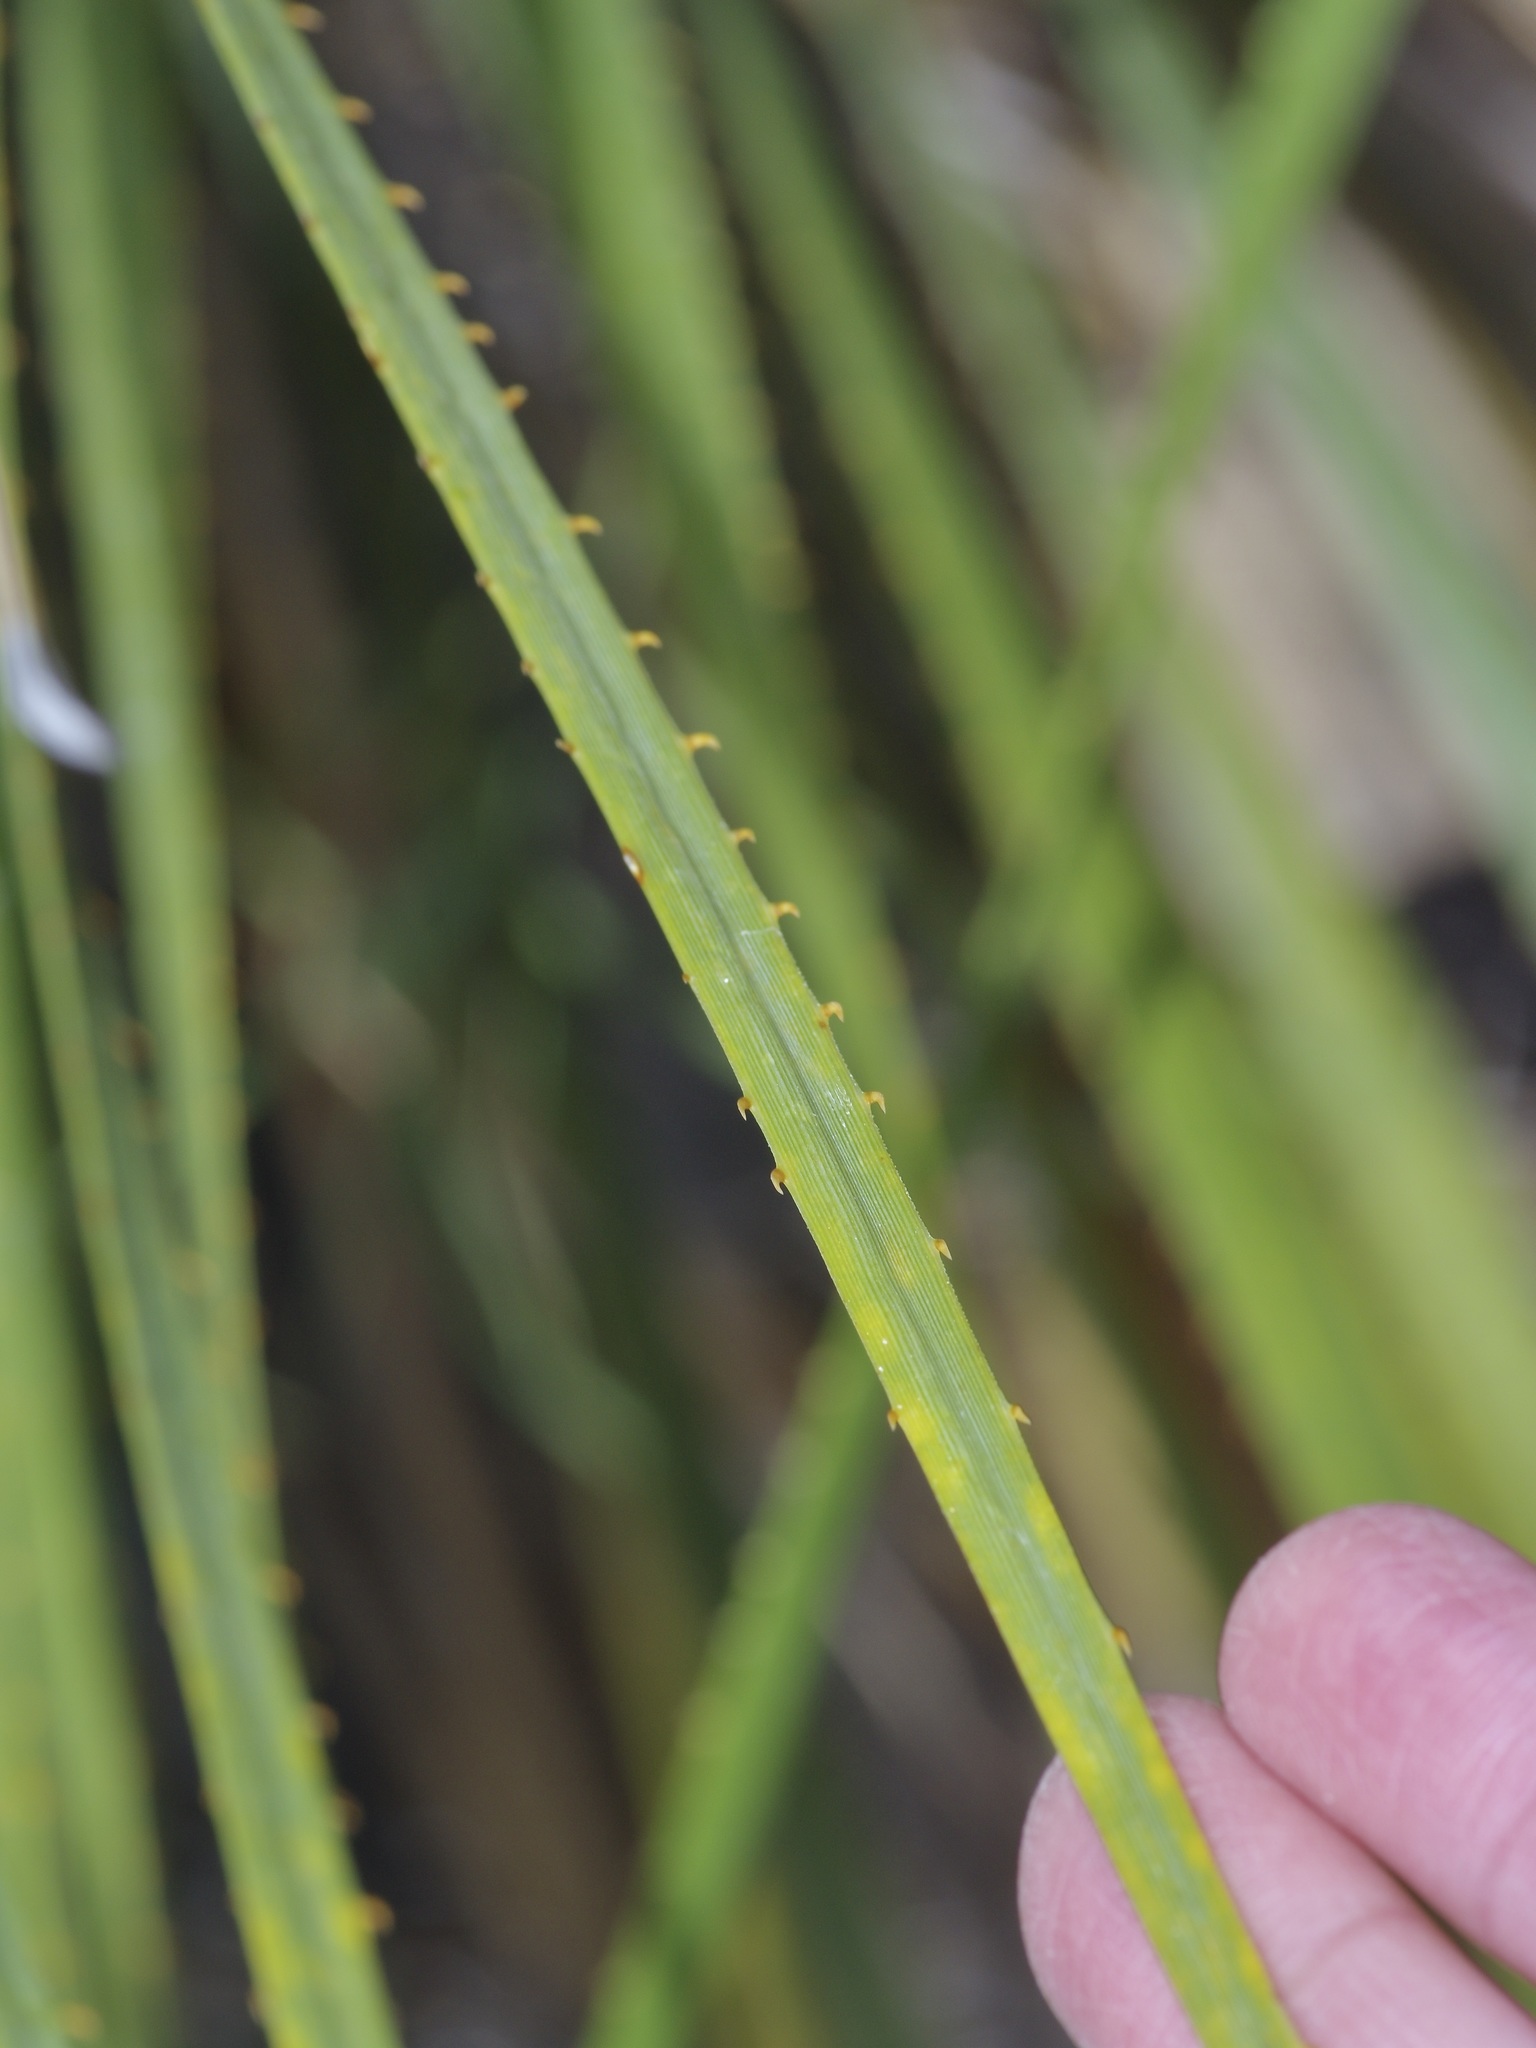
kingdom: Plantae
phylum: Tracheophyta
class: Liliopsida
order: Asparagales
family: Asparagaceae
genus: Dasylirion
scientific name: Dasylirion texanum
